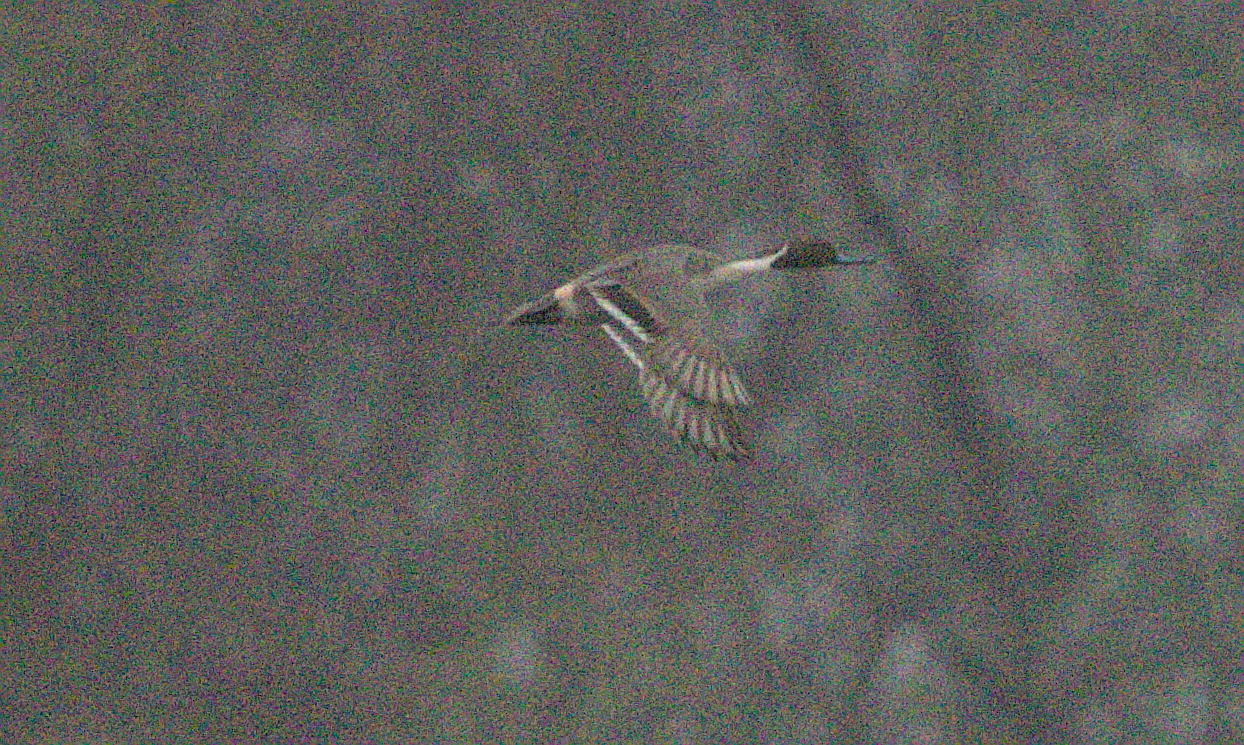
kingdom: Animalia
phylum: Chordata
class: Aves
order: Anseriformes
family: Anatidae
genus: Anas
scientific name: Anas acuta
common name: Northern pintail
